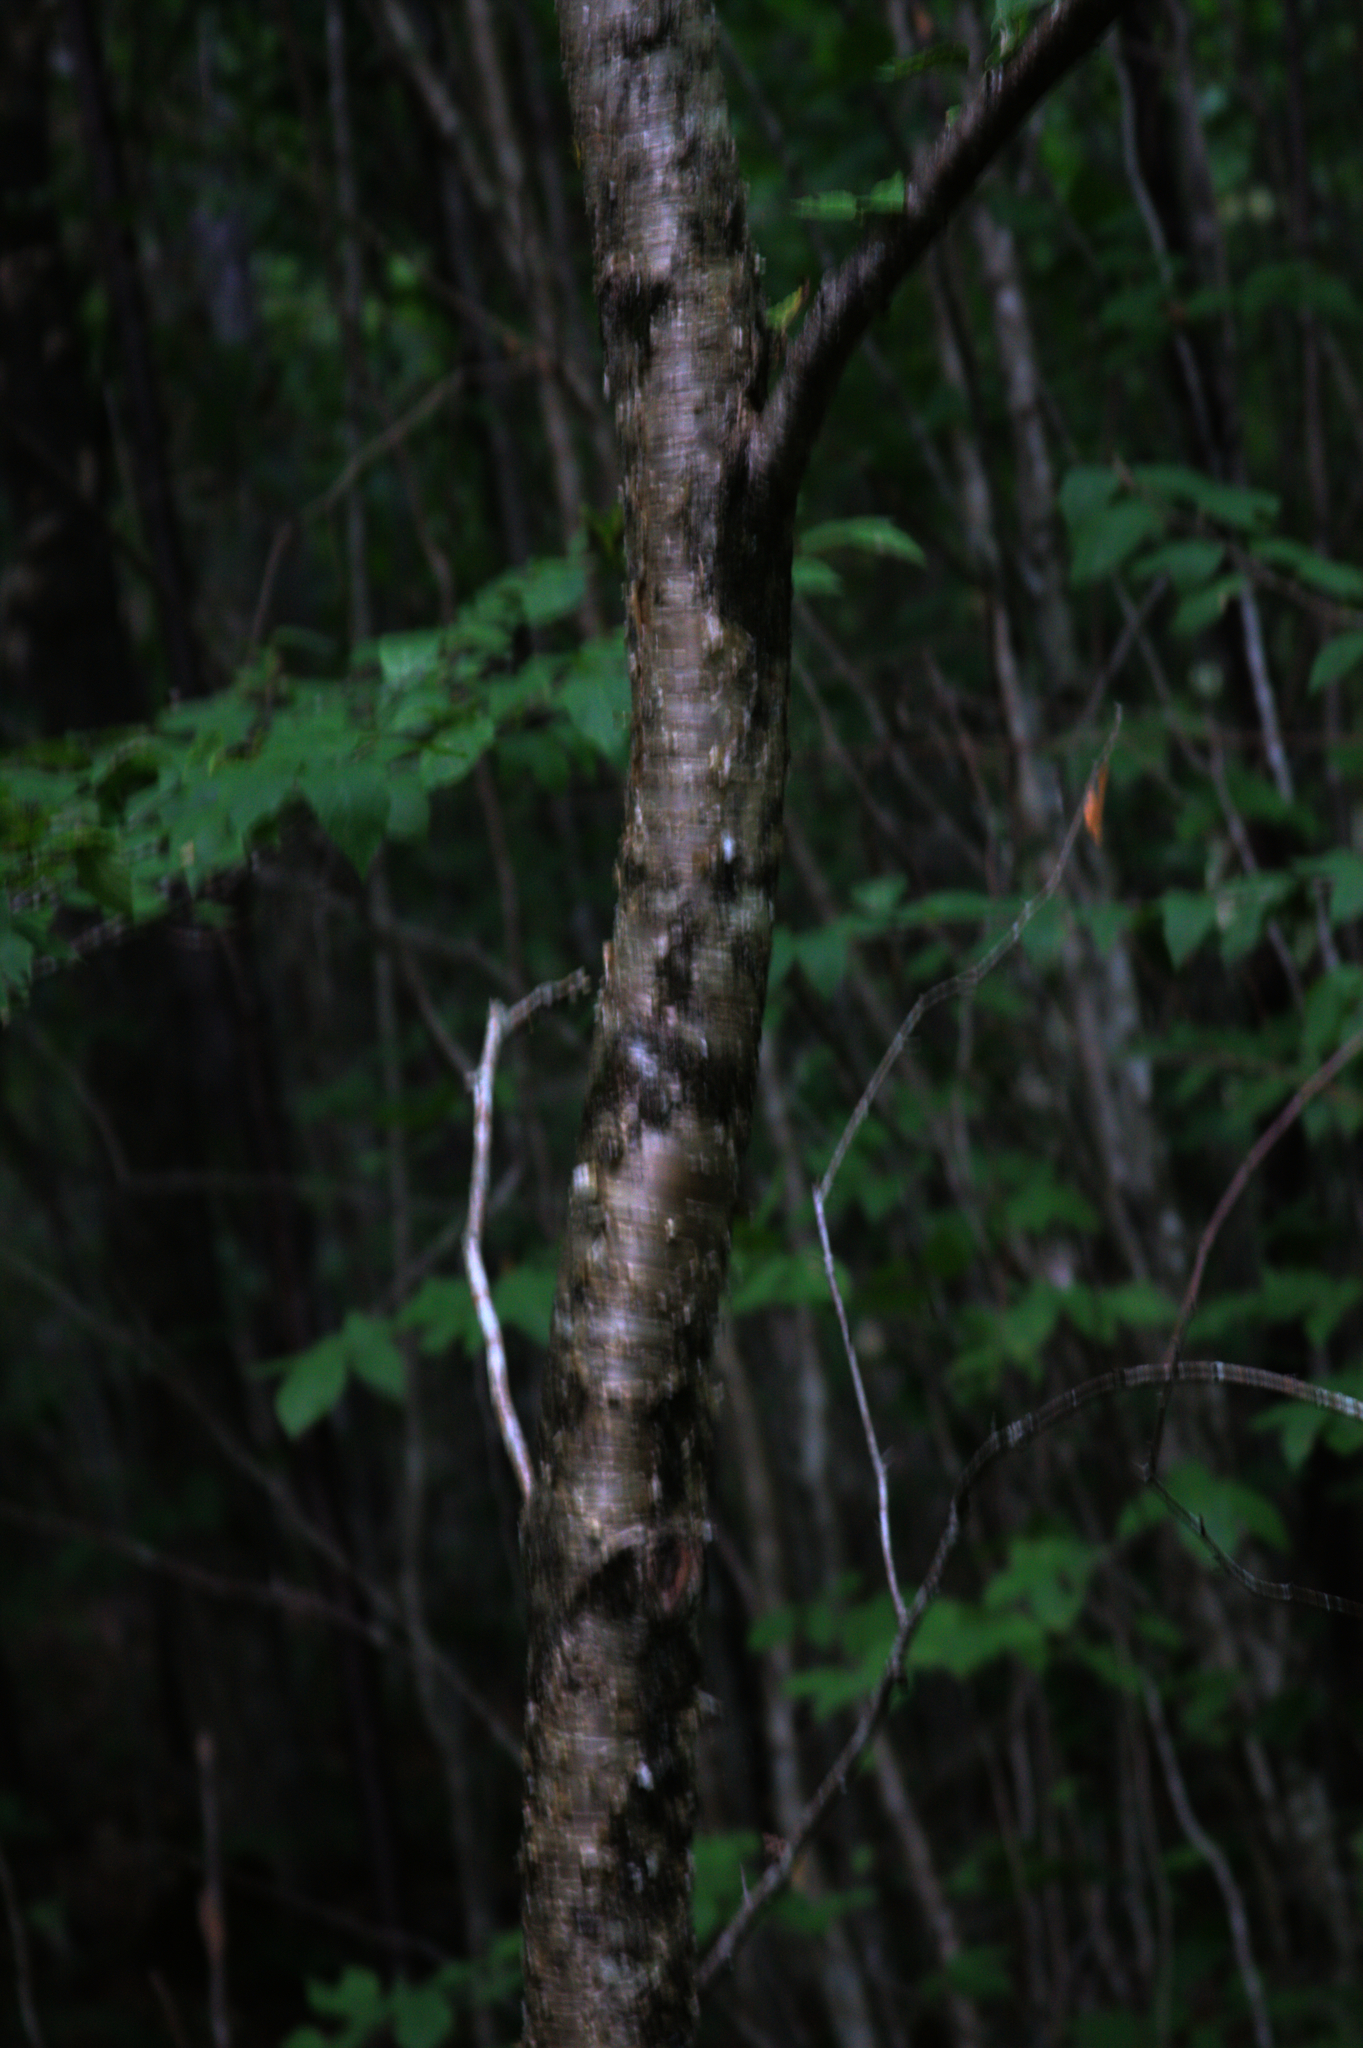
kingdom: Plantae
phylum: Tracheophyta
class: Magnoliopsida
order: Fagales
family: Betulaceae
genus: Betula
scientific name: Betula alleghaniensis
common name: Yellow birch
